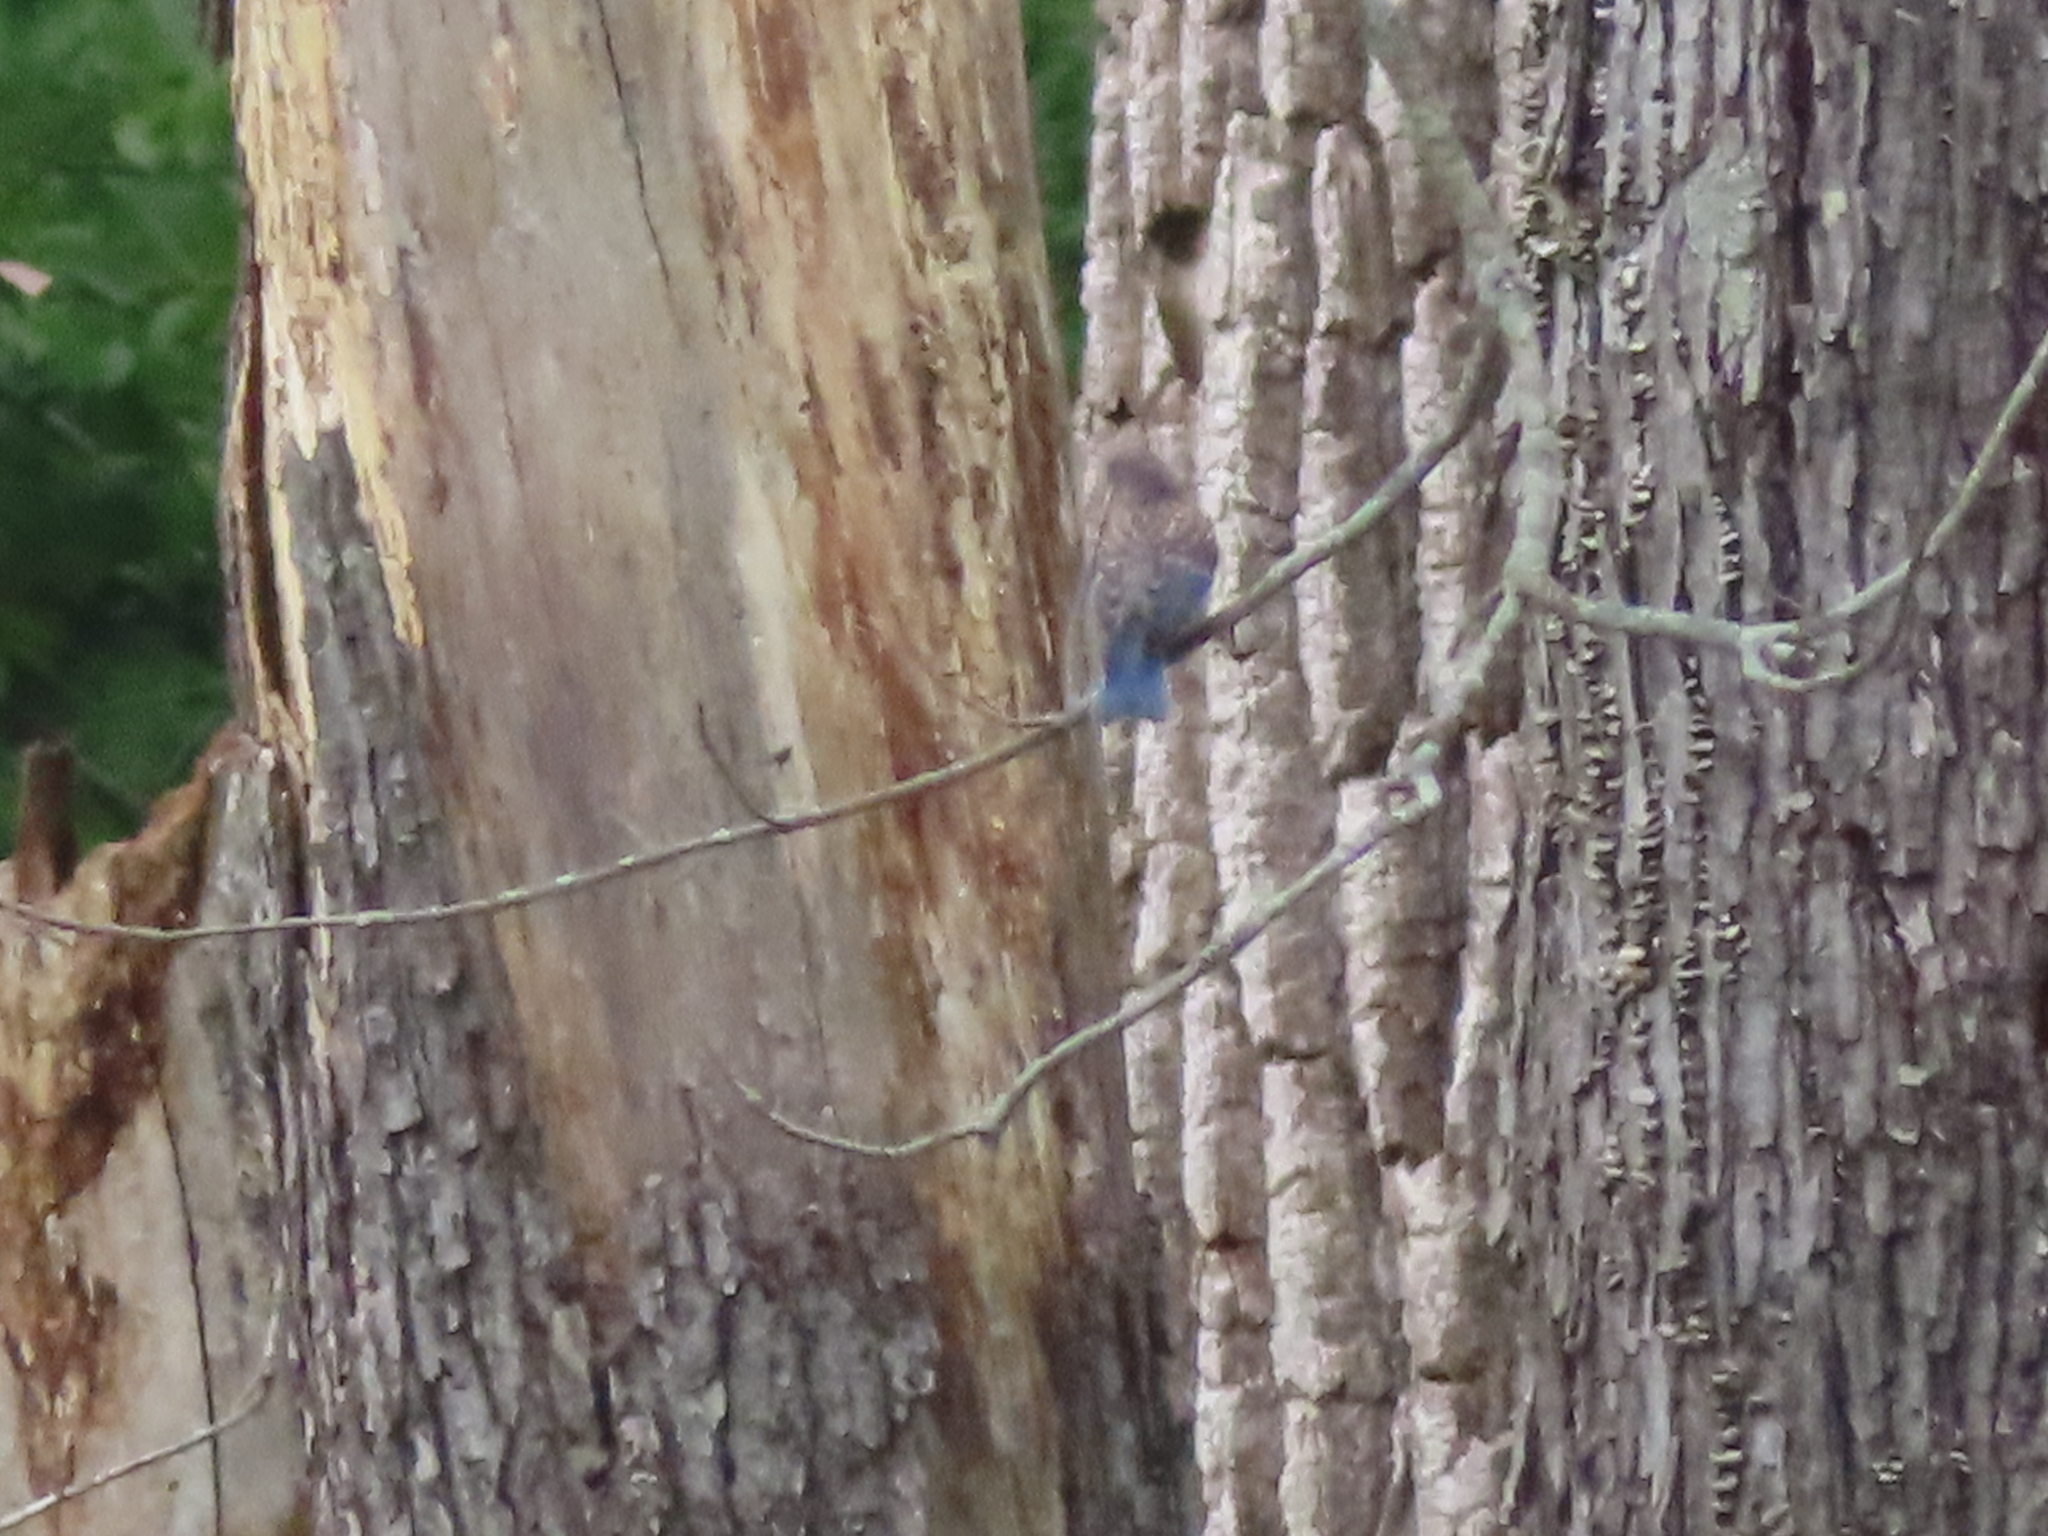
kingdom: Animalia
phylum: Chordata
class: Aves
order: Passeriformes
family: Turdidae
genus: Sialia
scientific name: Sialia sialis
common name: Eastern bluebird
